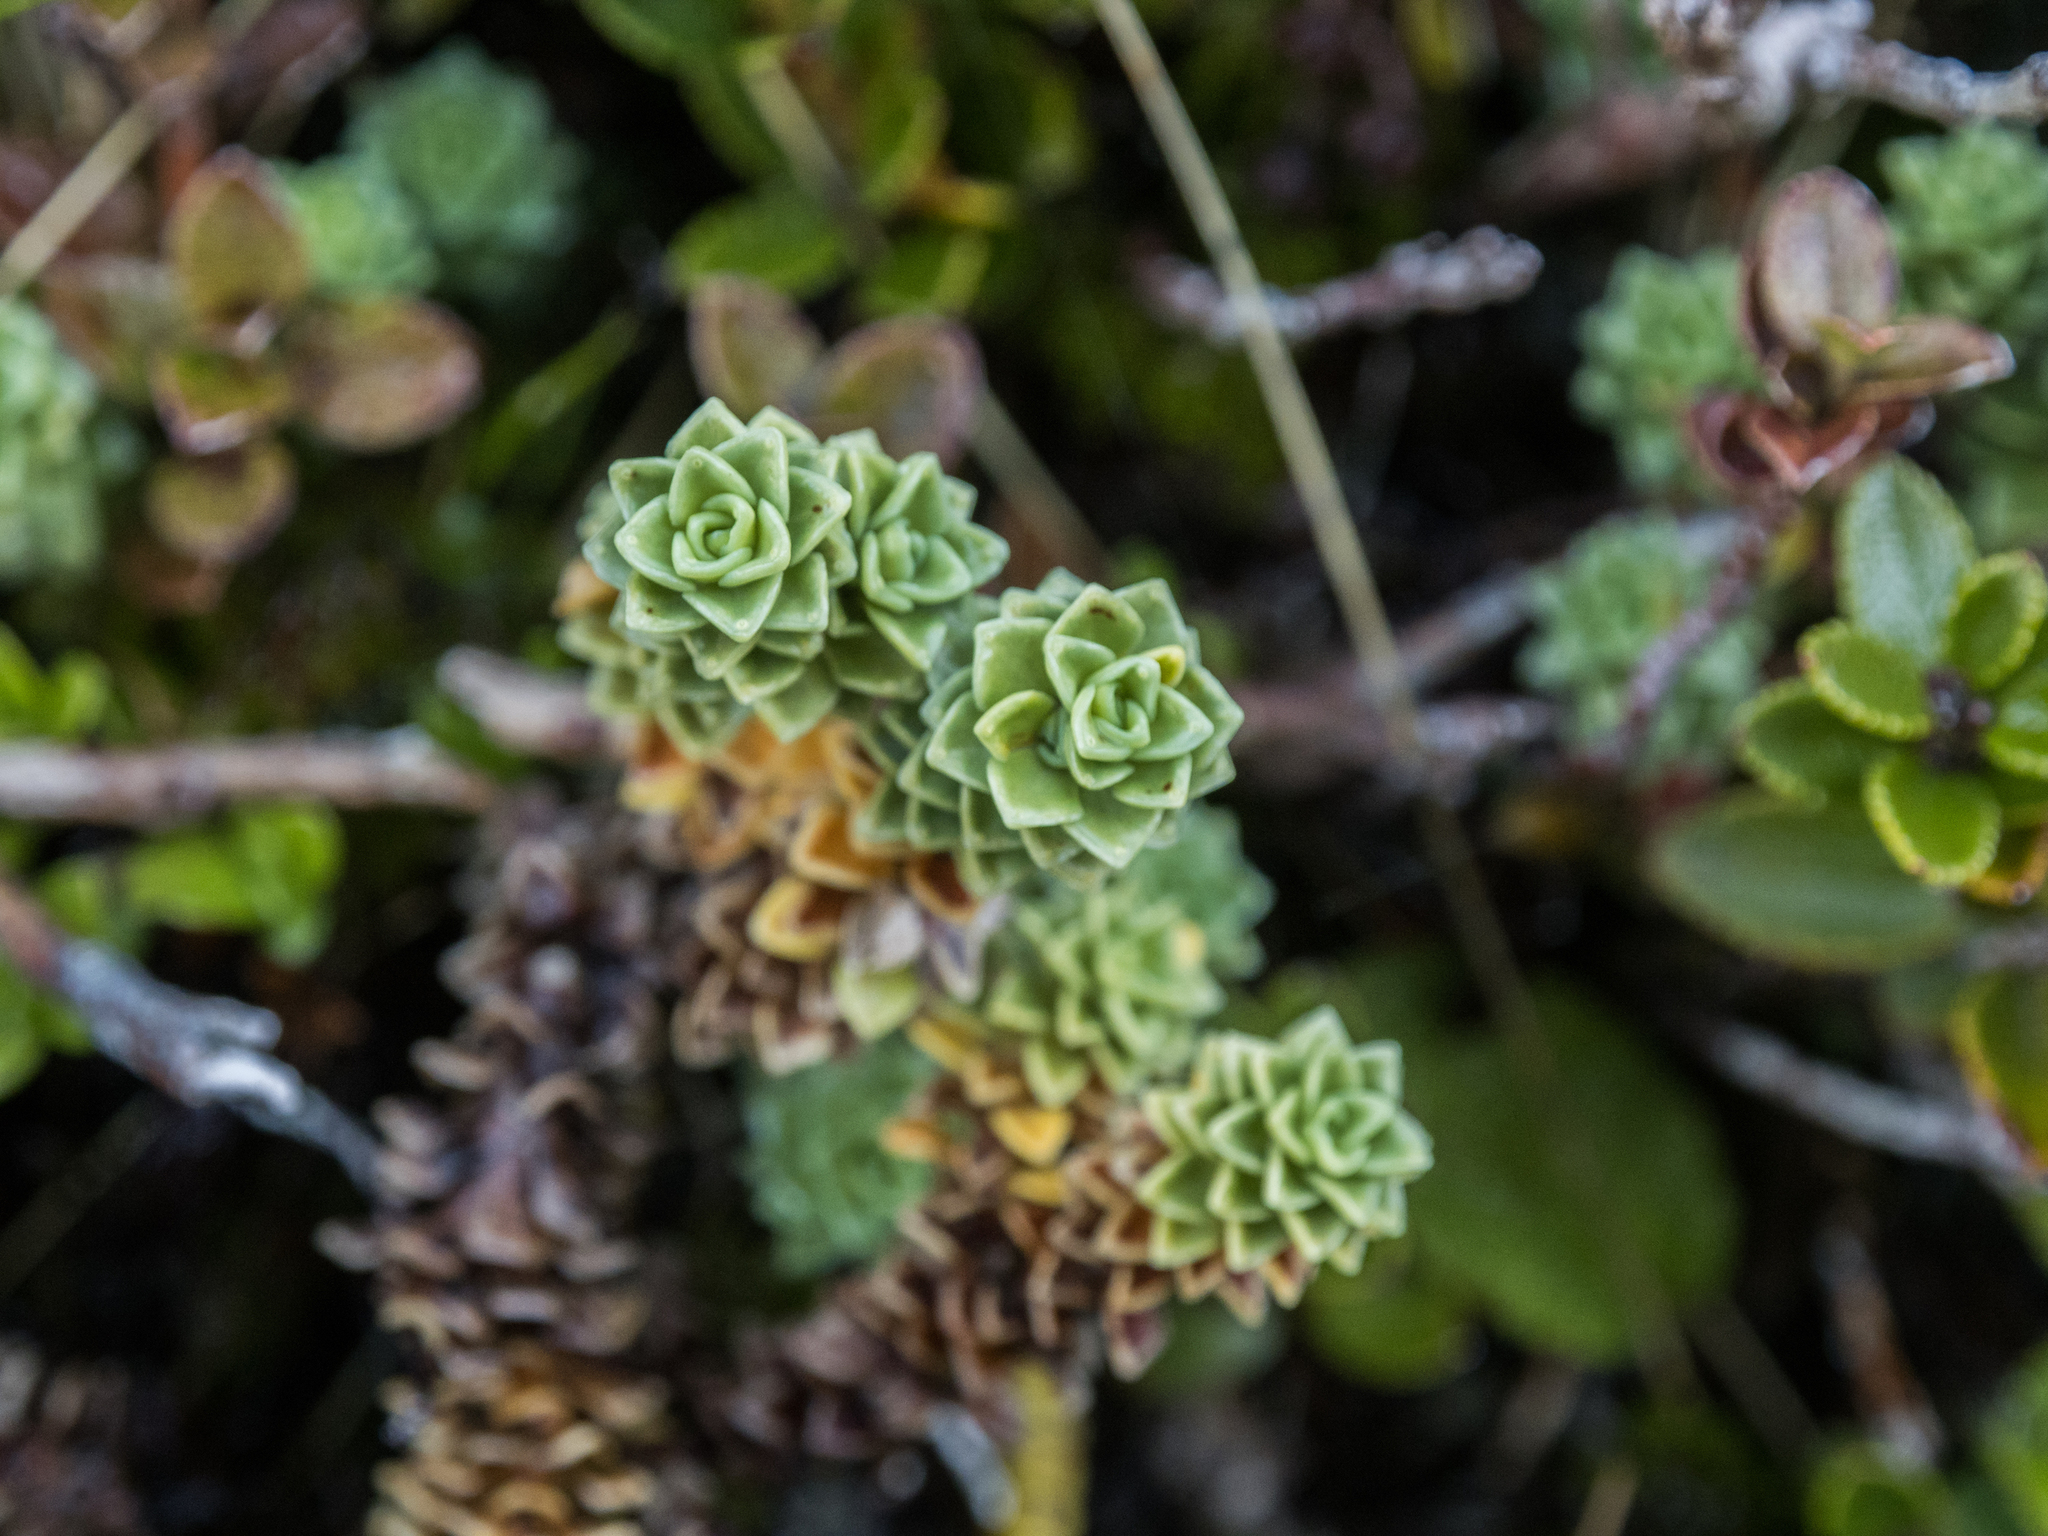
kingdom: Plantae
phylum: Tracheophyta
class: Magnoliopsida
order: Asterales
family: Stylidiaceae
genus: Forstera
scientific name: Forstera sedifolia
